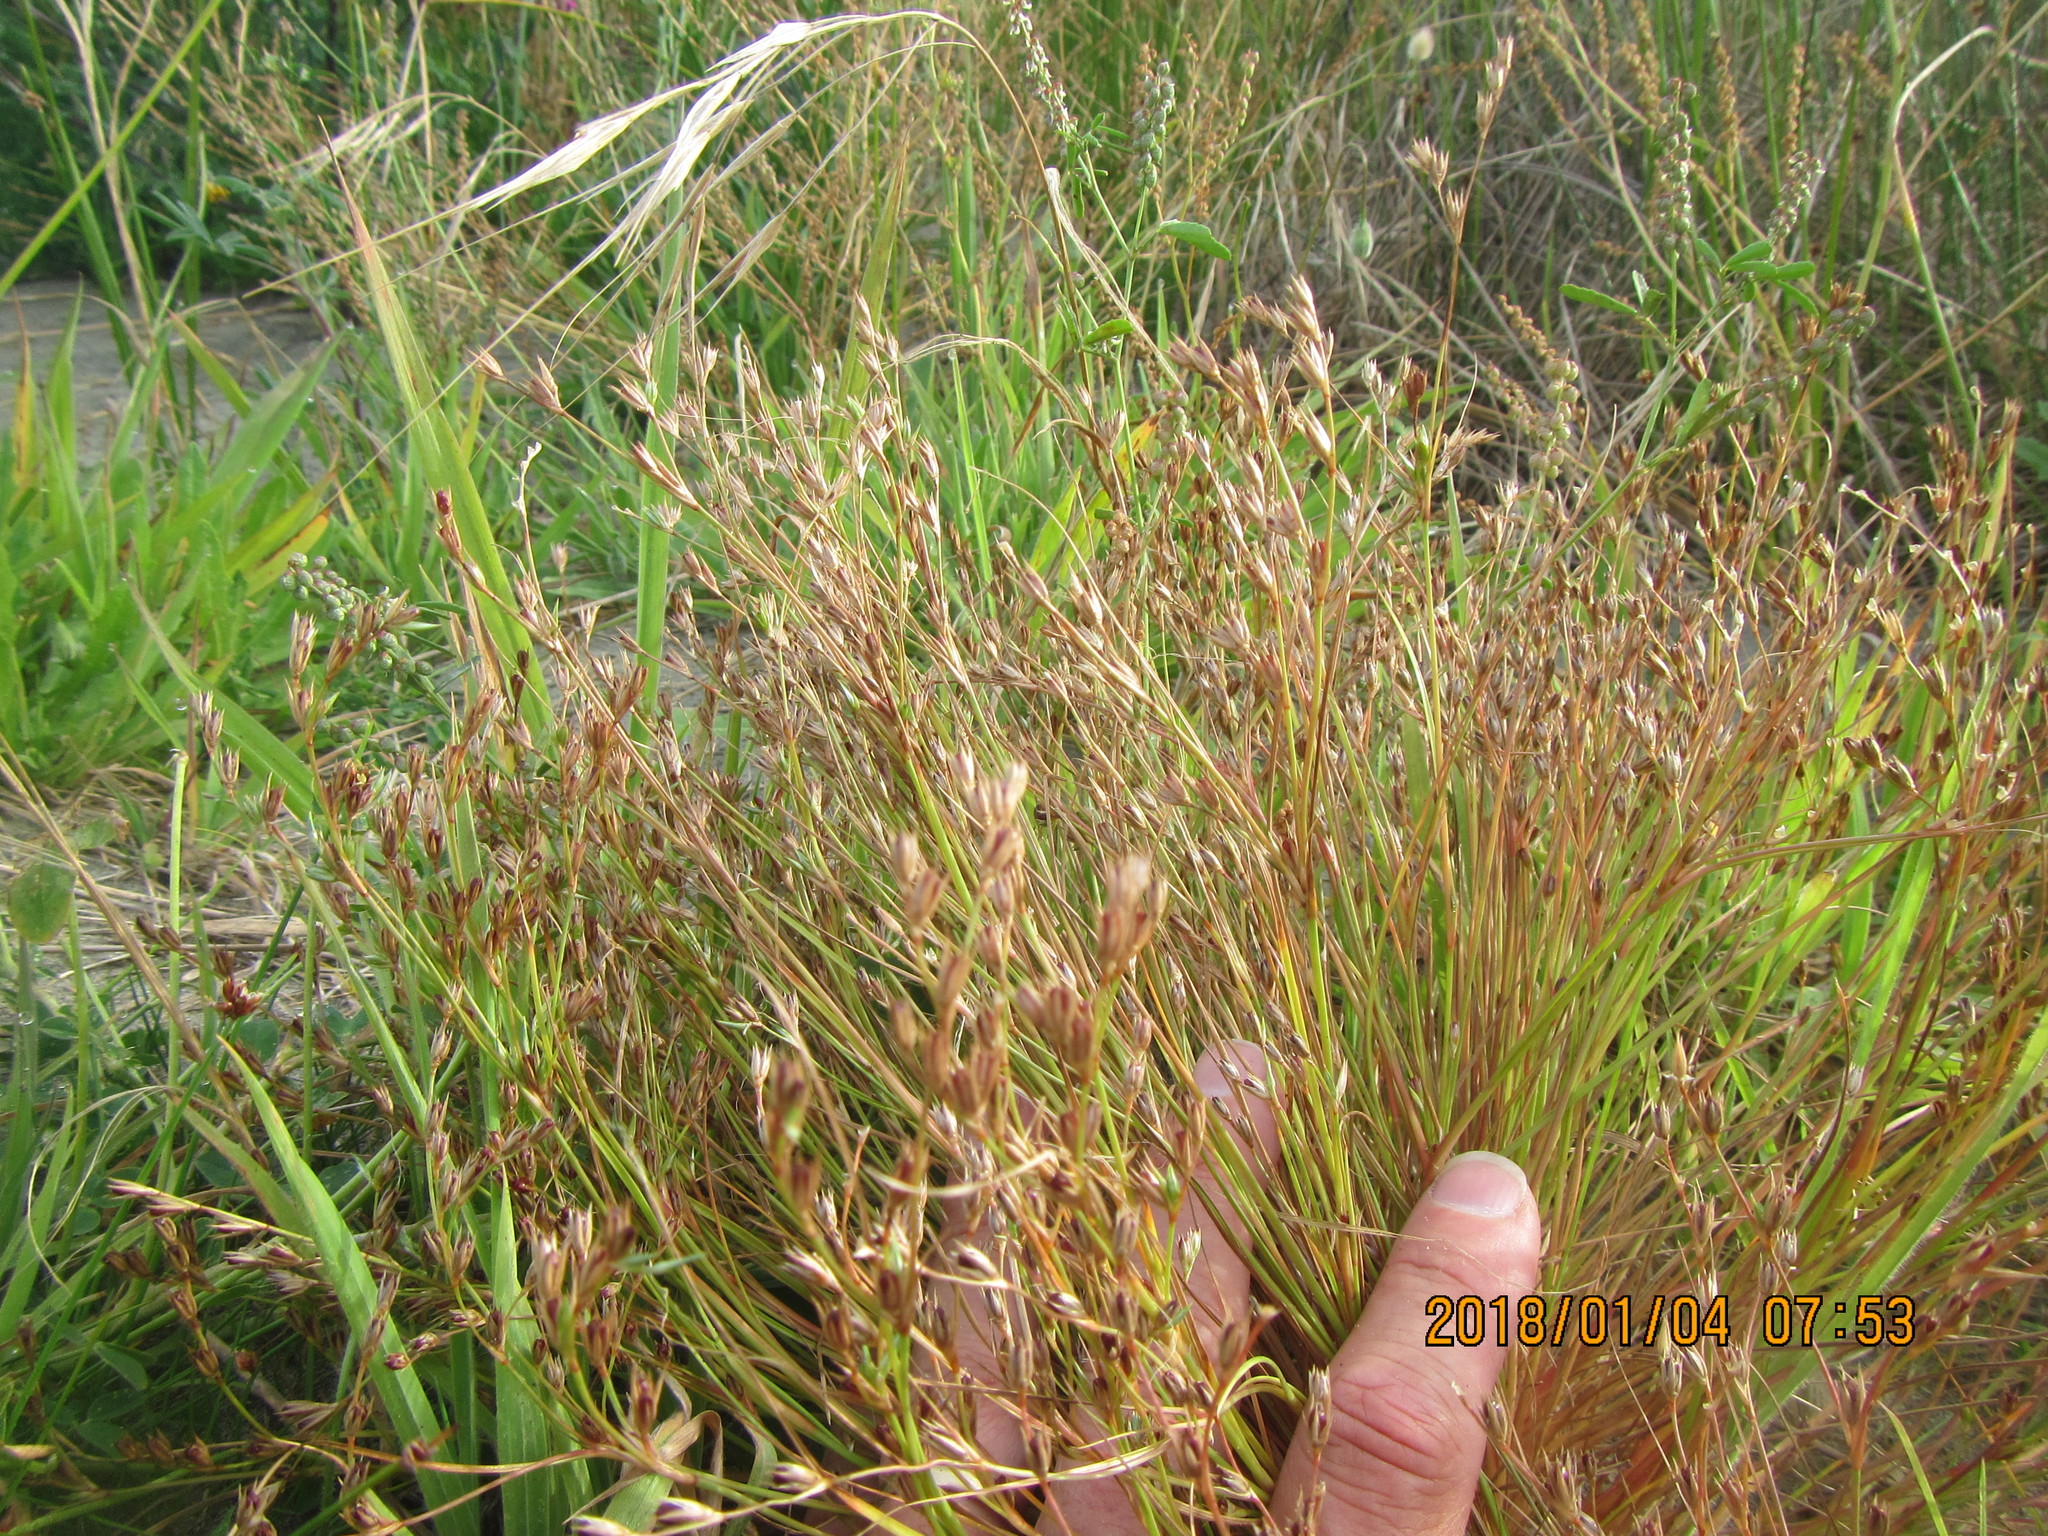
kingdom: Plantae
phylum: Tracheophyta
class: Liliopsida
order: Poales
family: Juncaceae
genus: Juncus
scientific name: Juncus bufonius
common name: Toad rush
